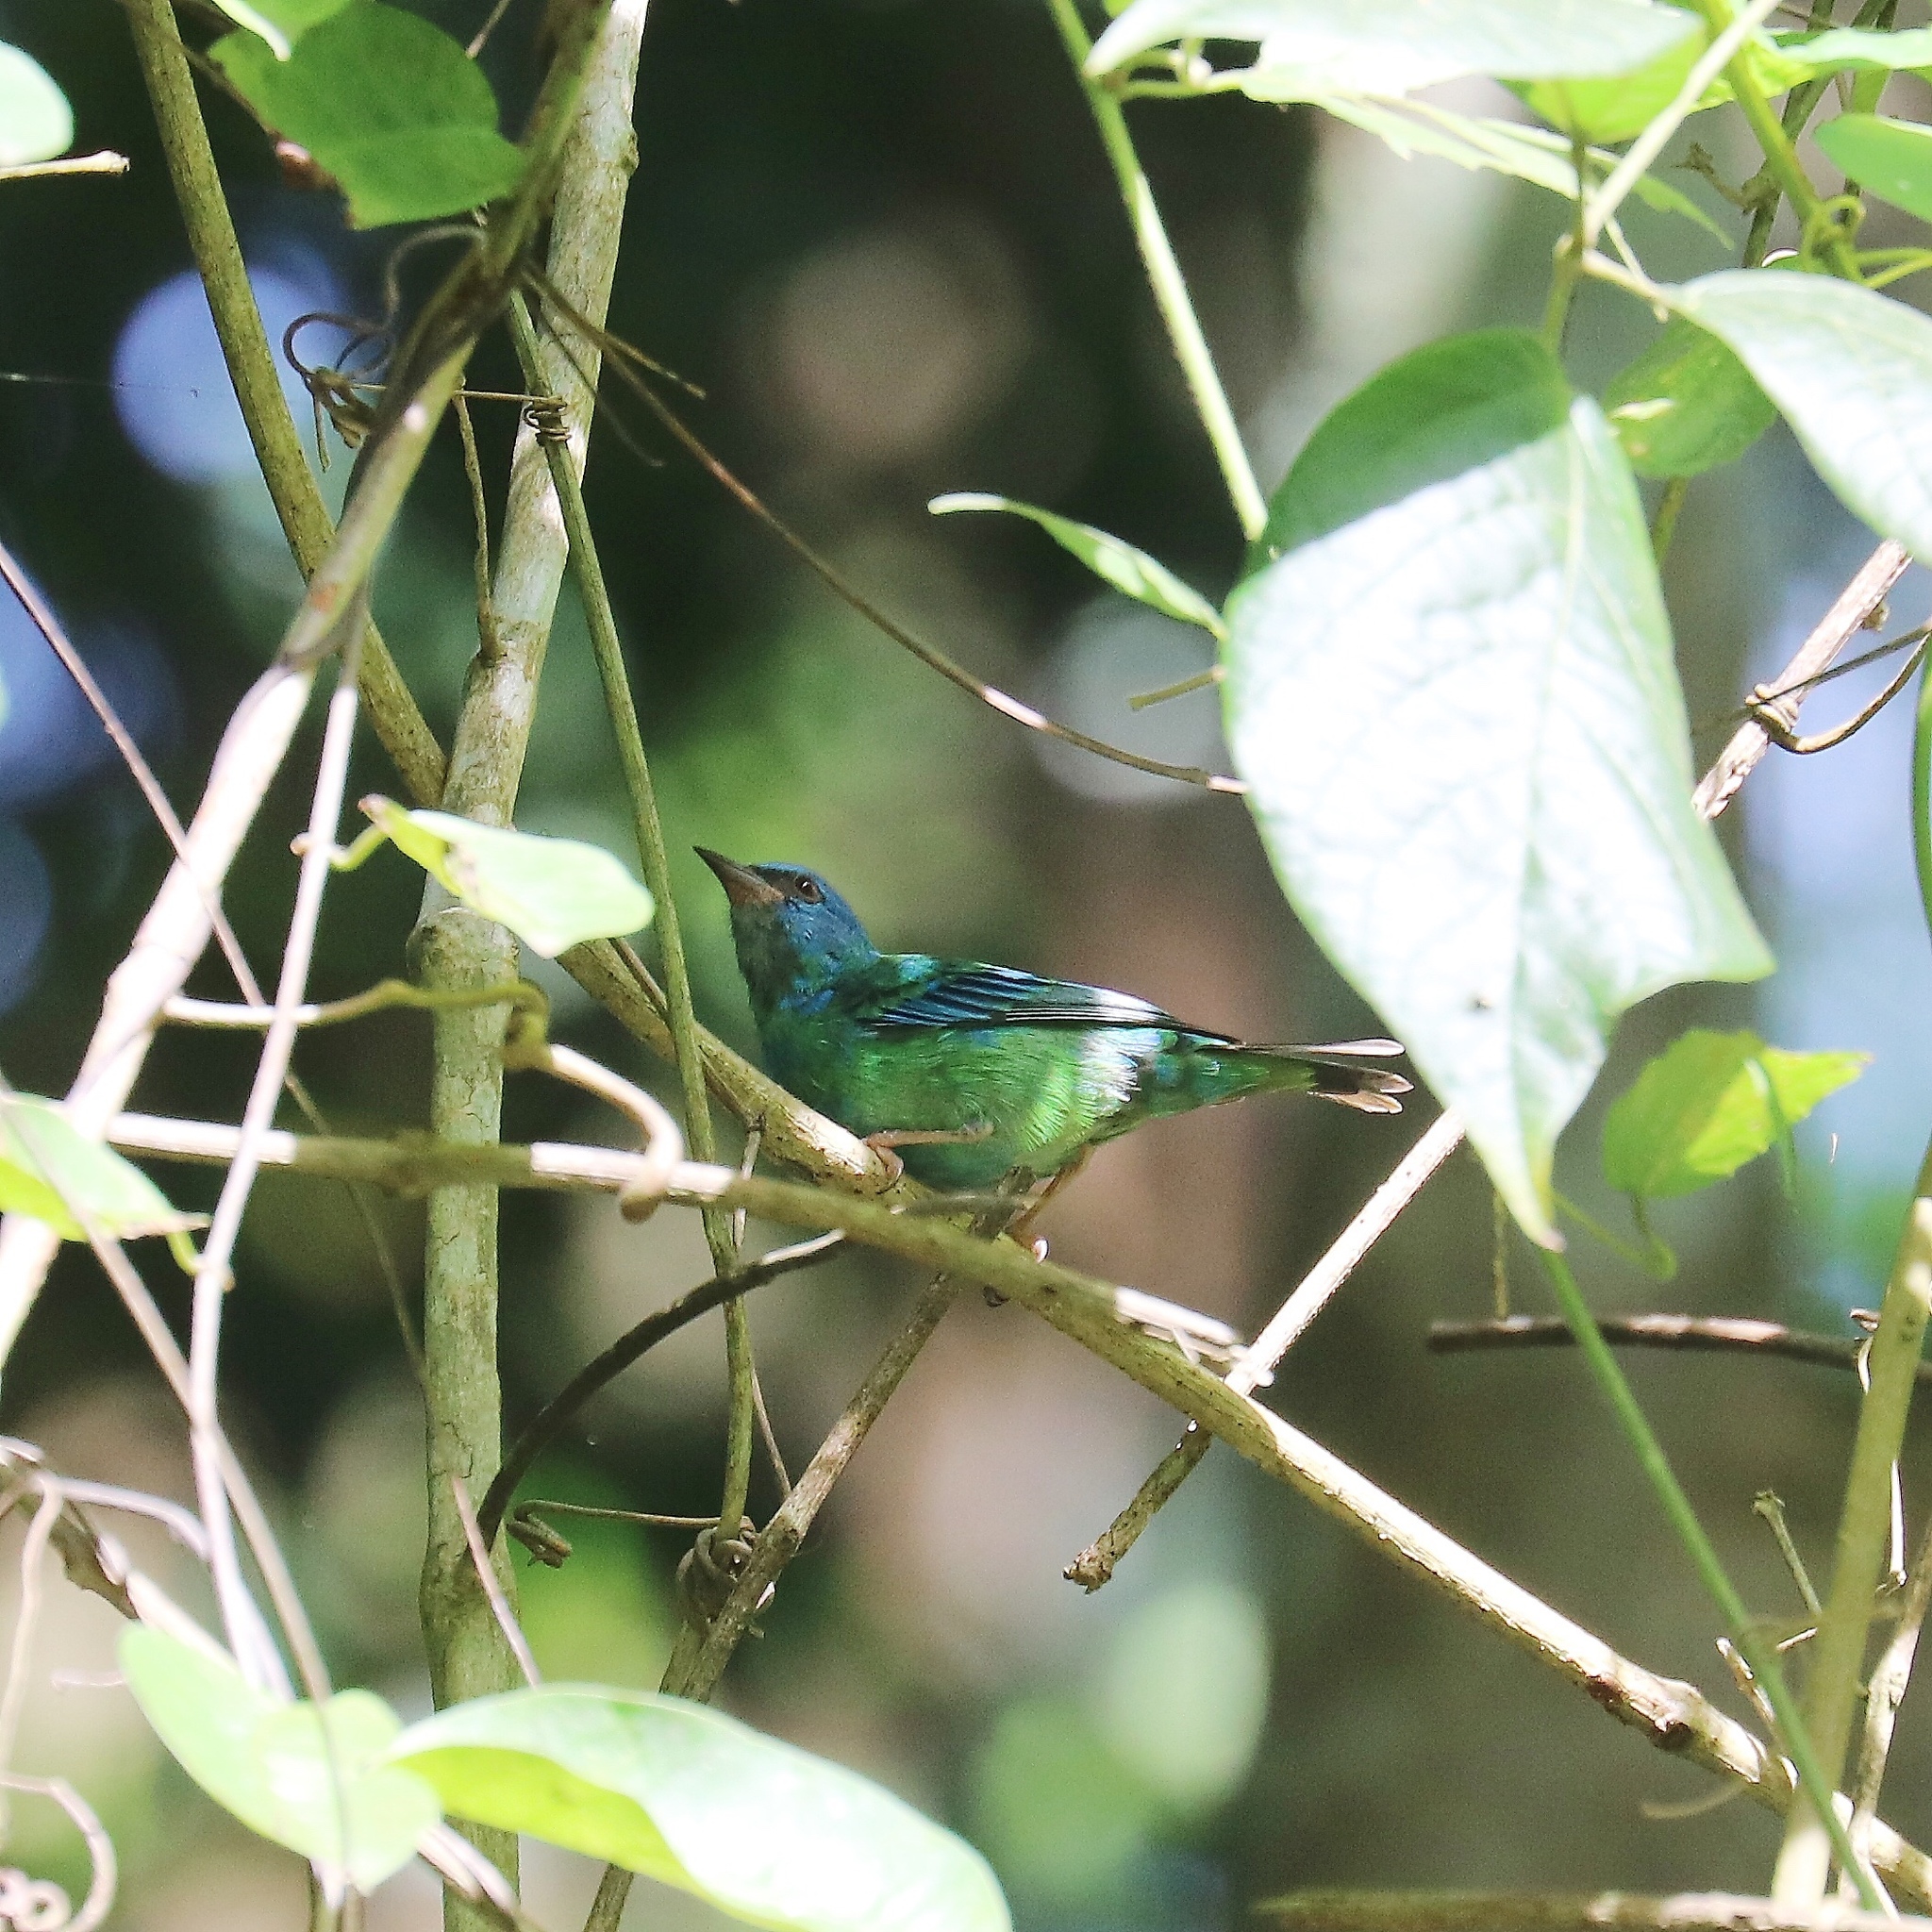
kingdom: Animalia
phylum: Chordata
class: Aves
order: Passeriformes
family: Thraupidae
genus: Dacnis
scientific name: Dacnis cayana
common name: Blue dacnis
